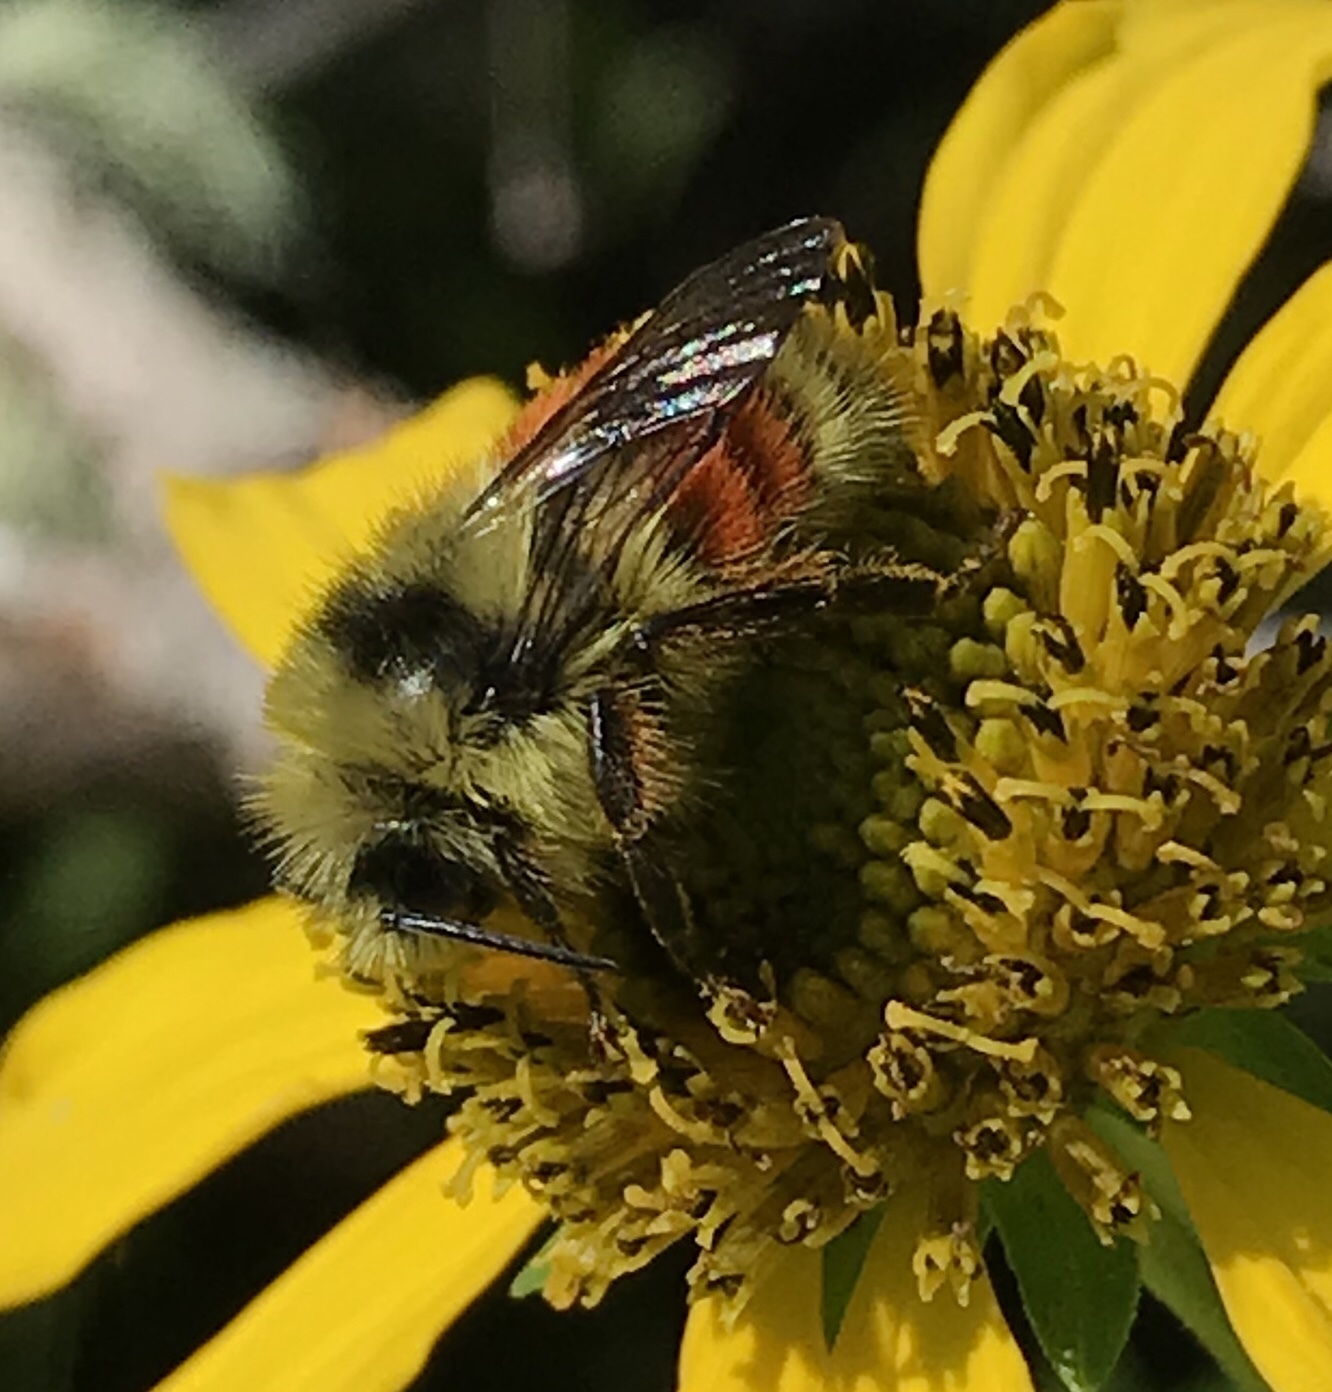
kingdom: Animalia
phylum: Arthropoda
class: Insecta
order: Hymenoptera
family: Apidae
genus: Pyrobombus
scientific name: Pyrobombus
